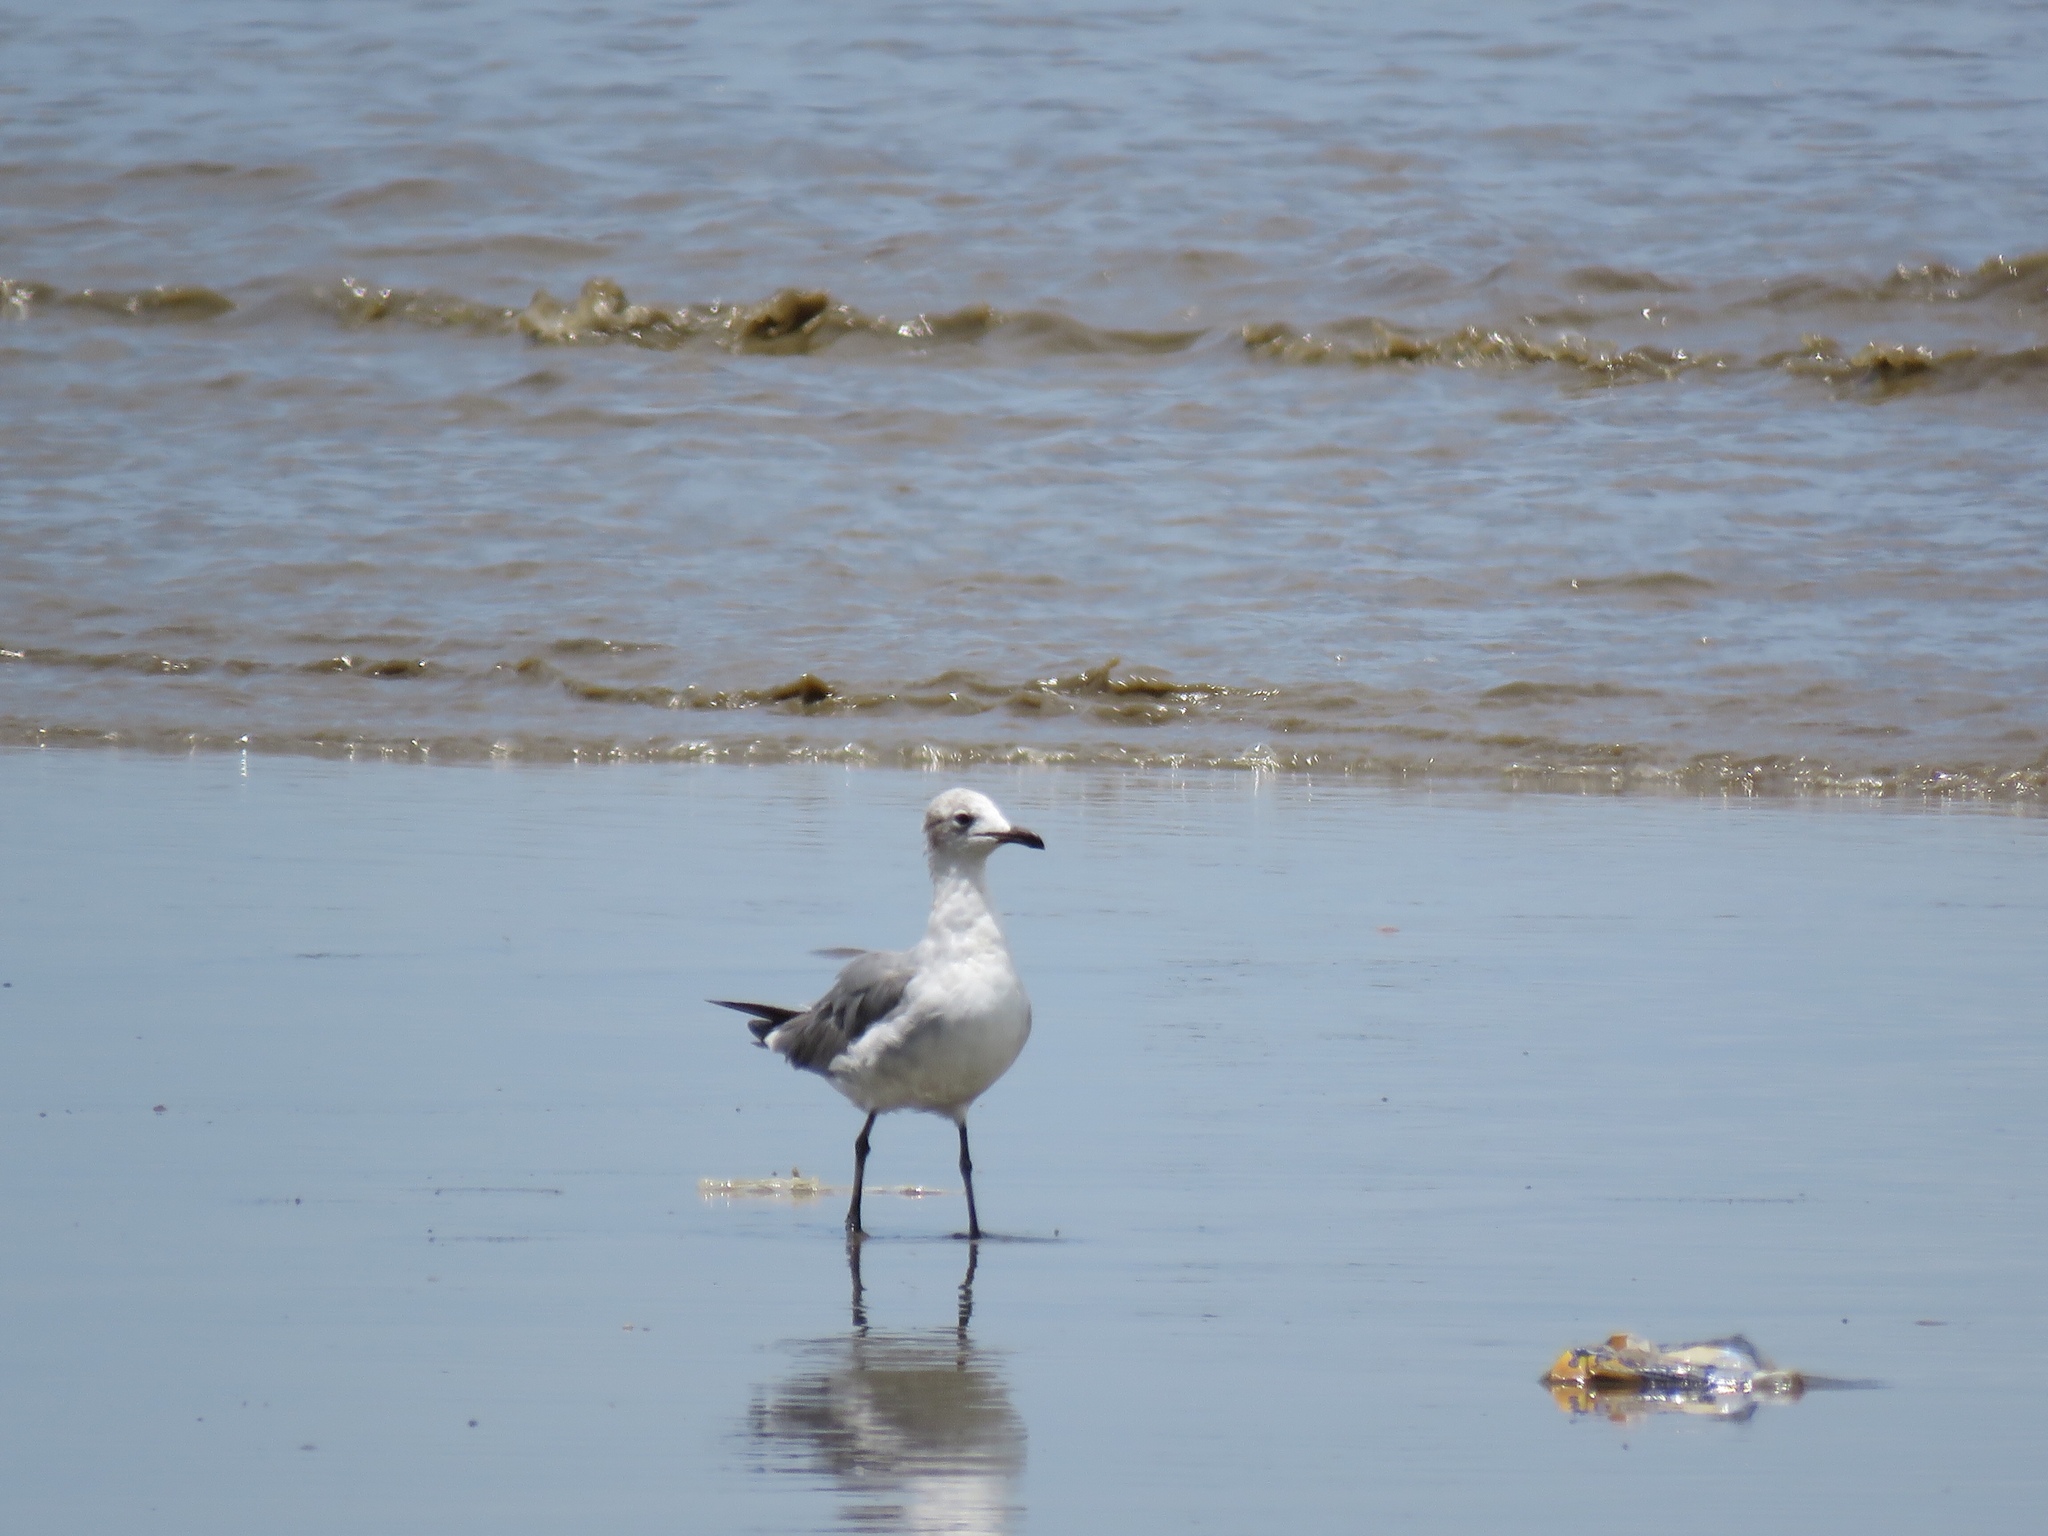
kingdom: Animalia
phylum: Chordata
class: Aves
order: Charadriiformes
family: Laridae
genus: Leucophaeus
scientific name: Leucophaeus atricilla
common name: Laughing gull
